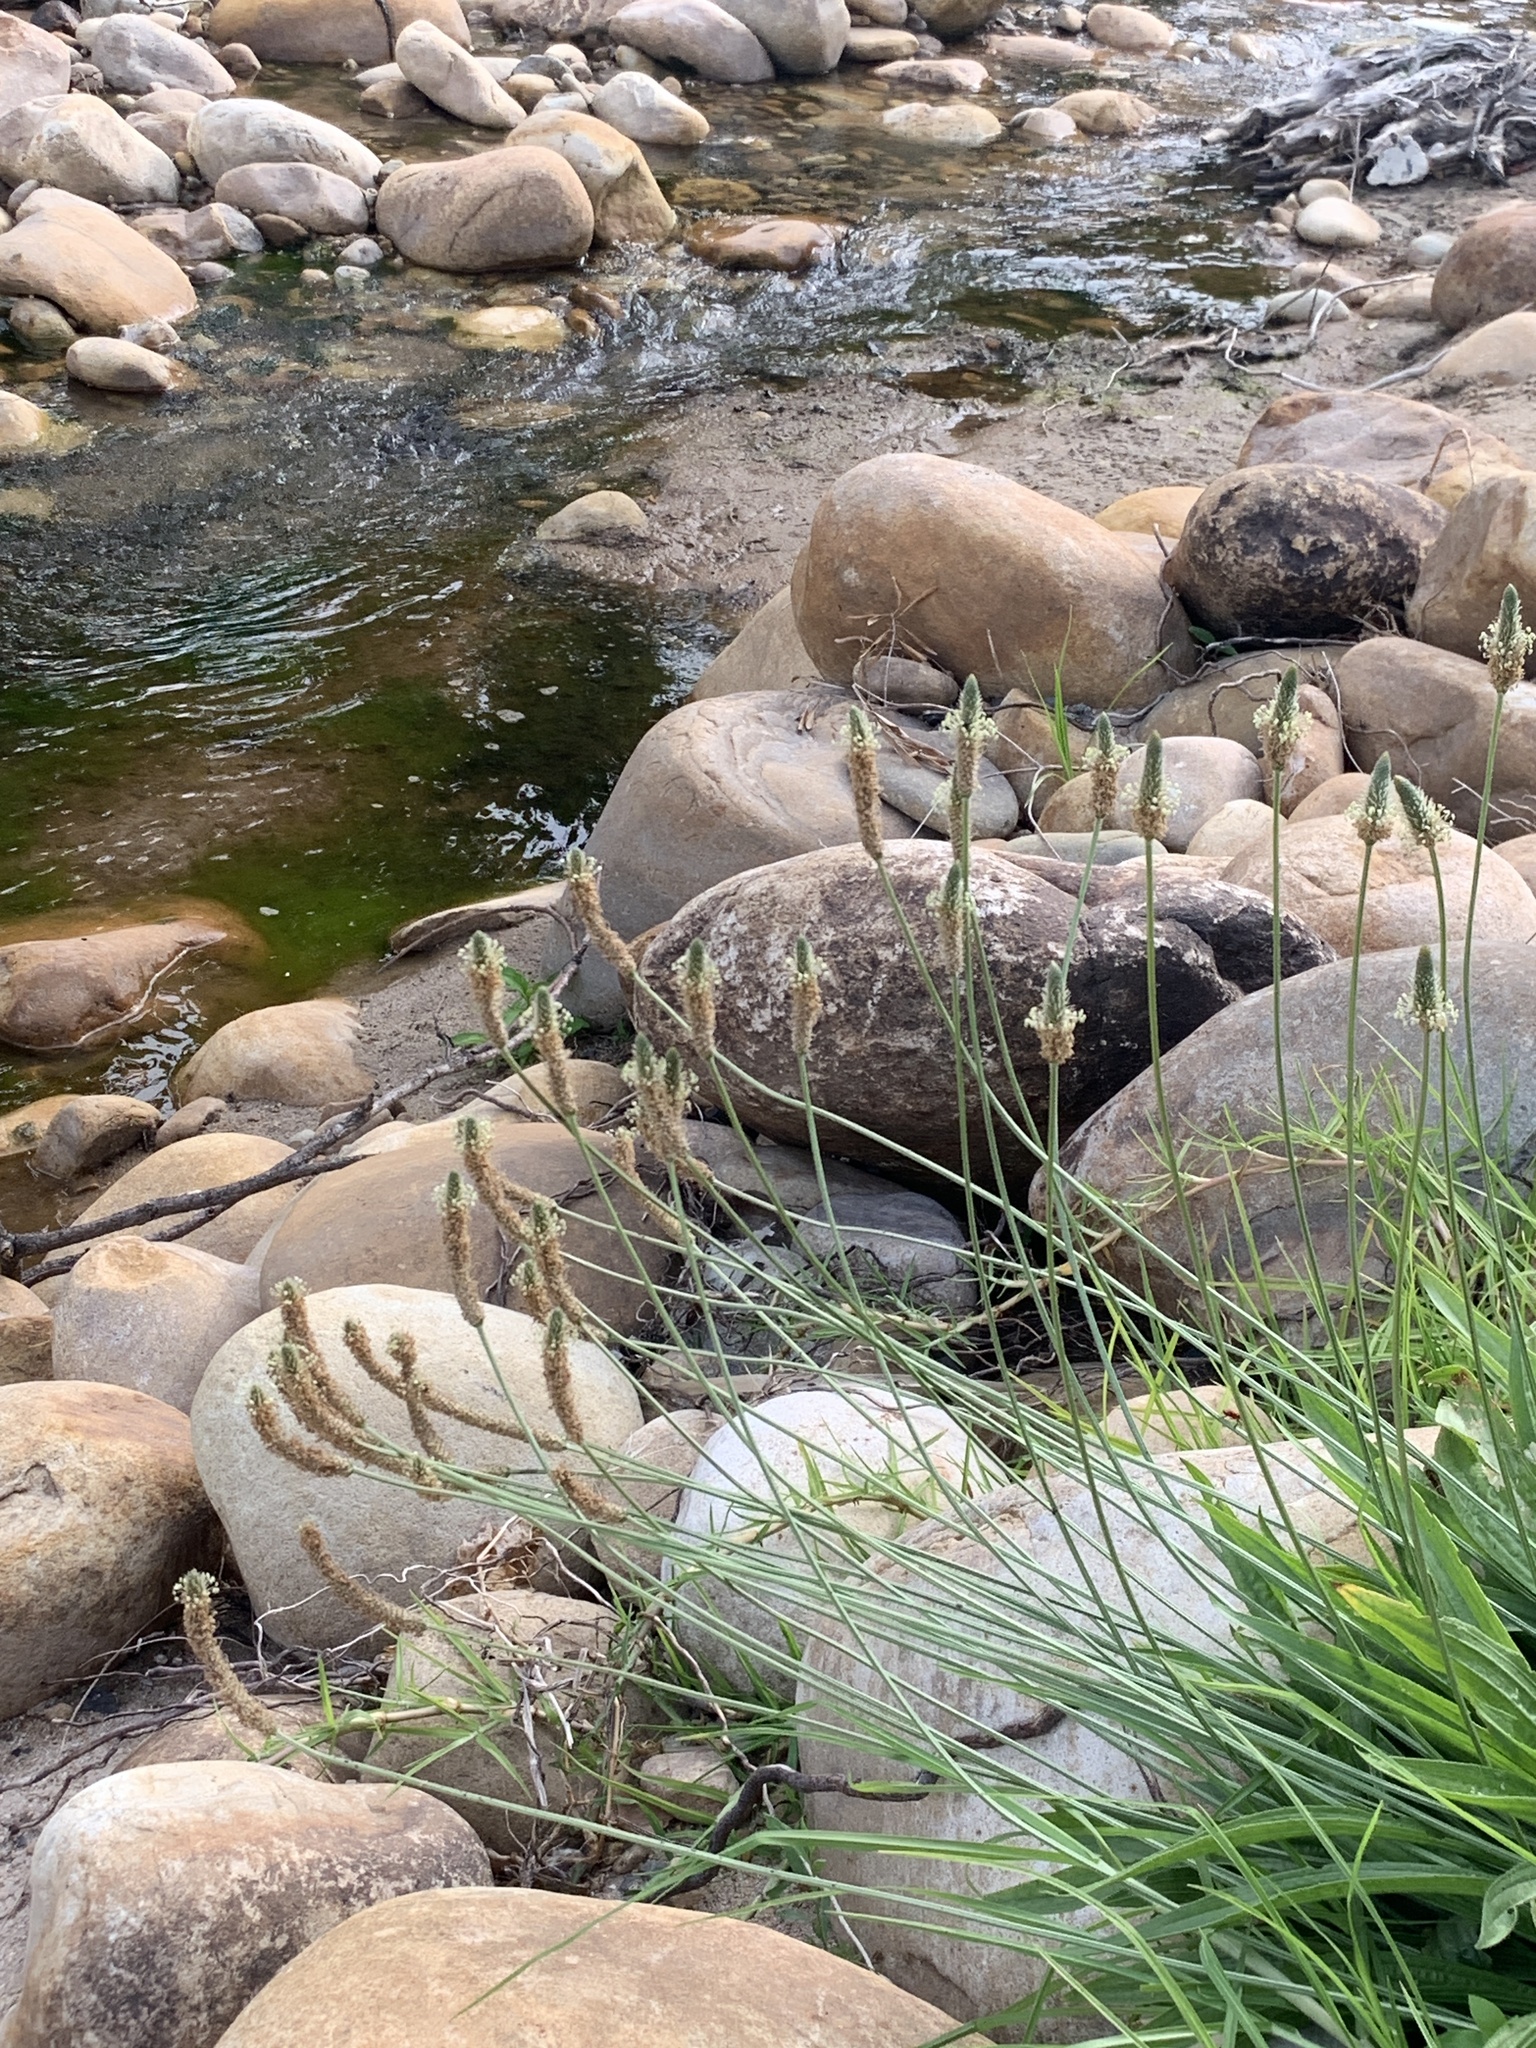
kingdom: Plantae
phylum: Tracheophyta
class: Magnoliopsida
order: Lamiales
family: Plantaginaceae
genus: Plantago
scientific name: Plantago lanceolata
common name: Ribwort plantain
